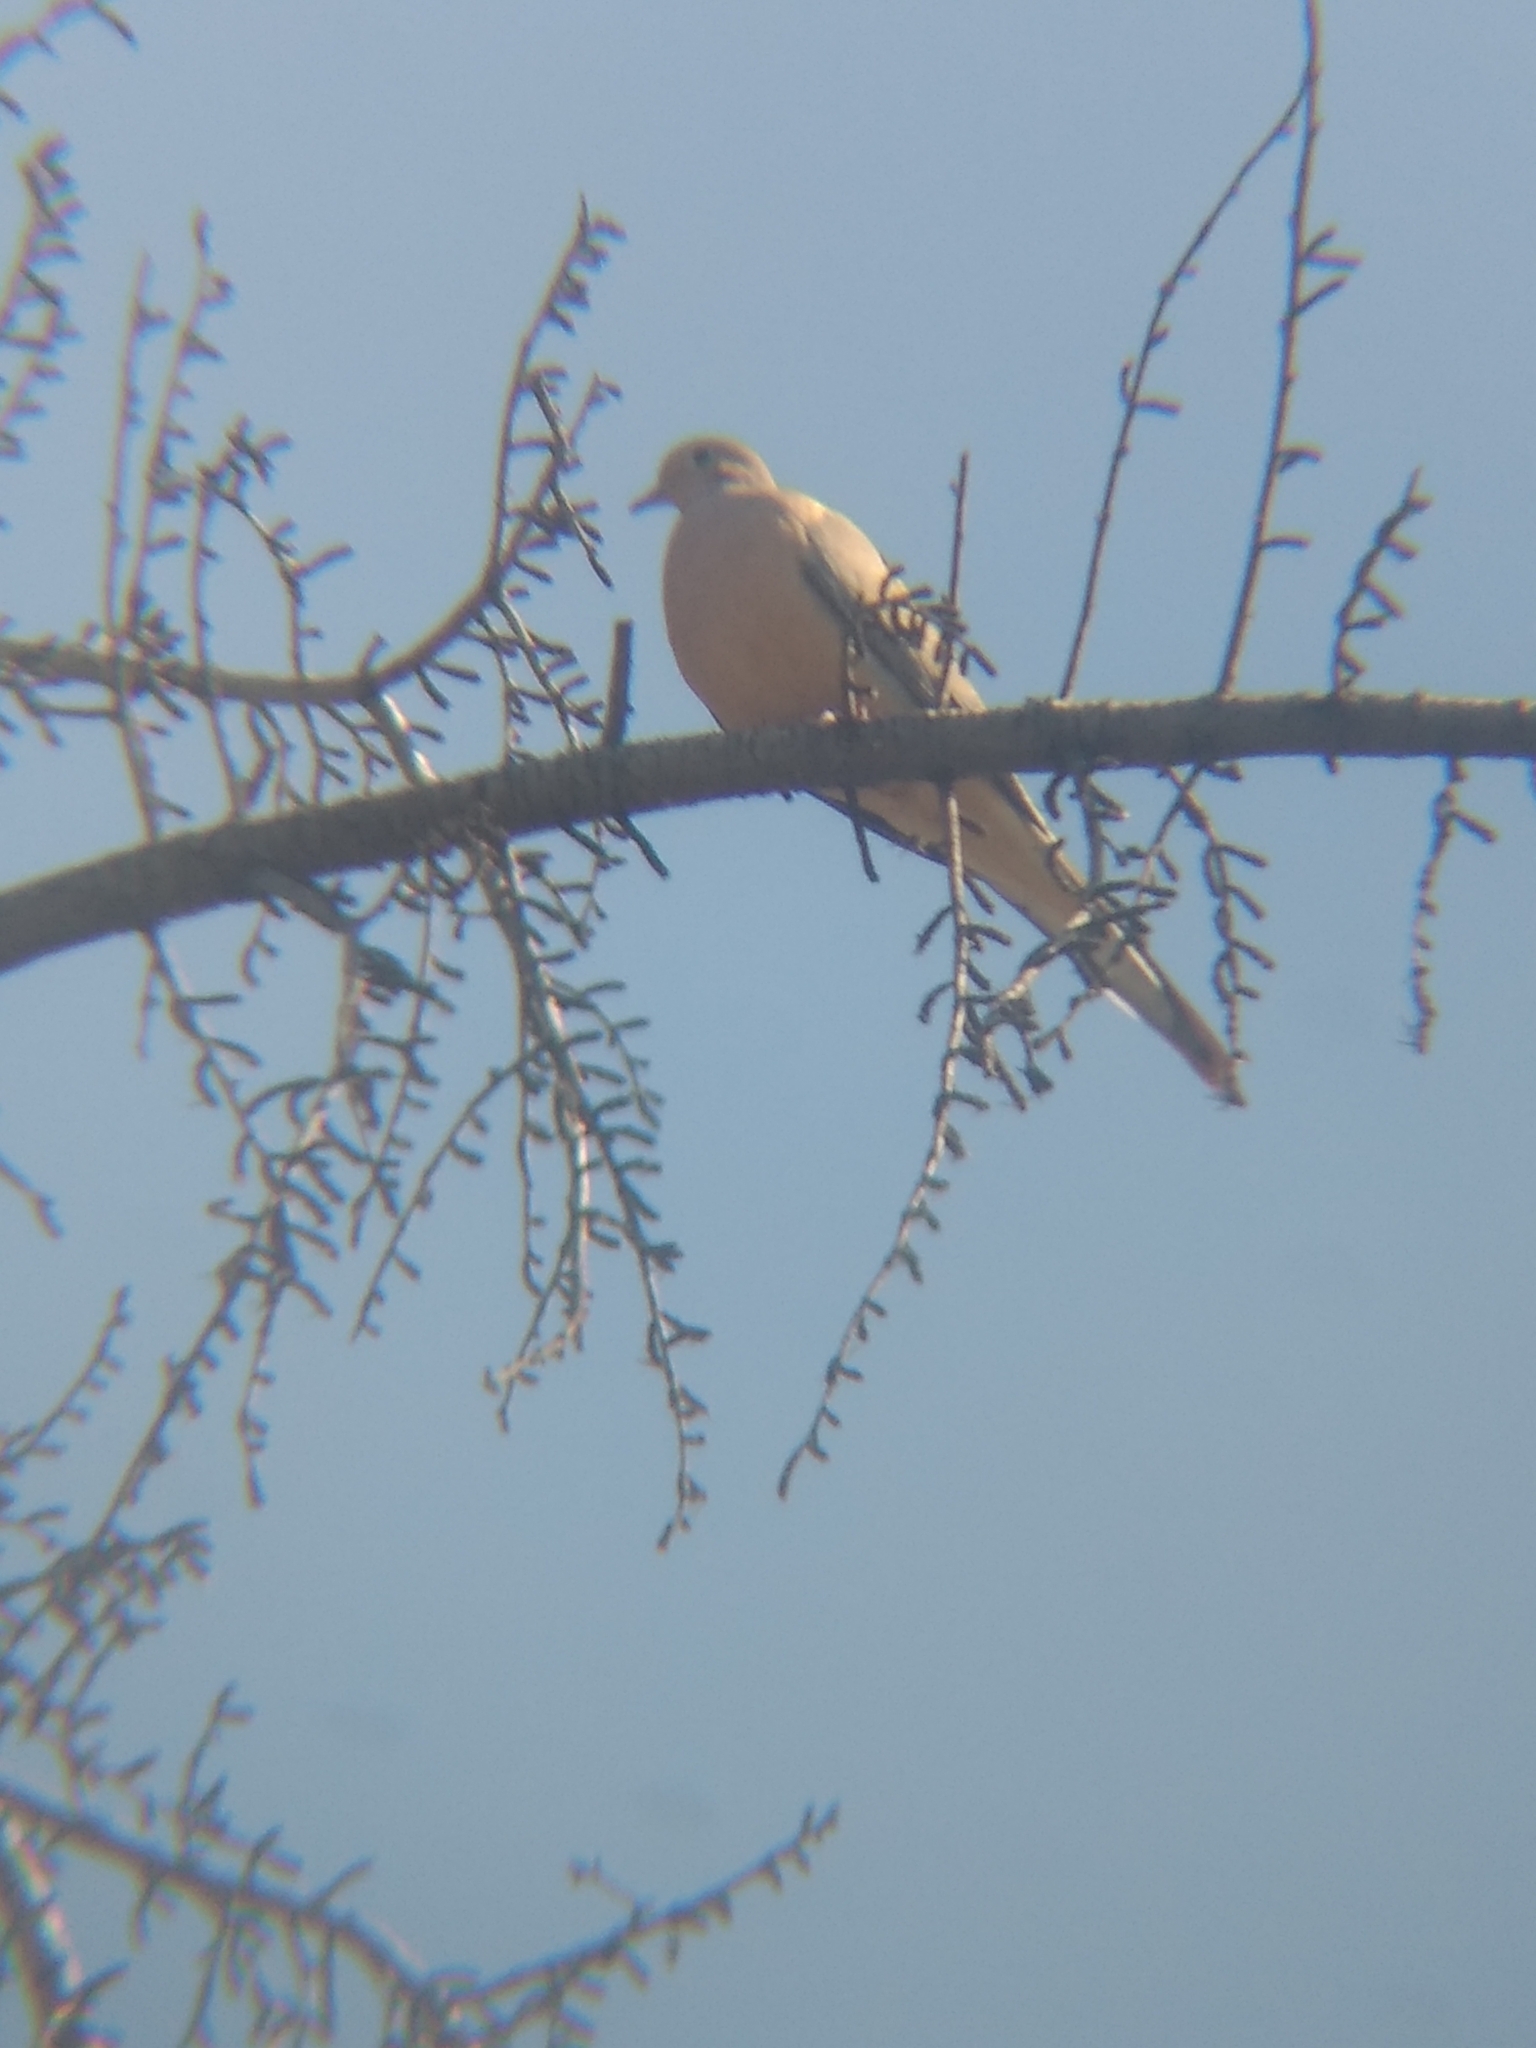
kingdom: Animalia
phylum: Chordata
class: Aves
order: Columbiformes
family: Columbidae
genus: Zenaida
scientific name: Zenaida macroura
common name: Mourning dove
